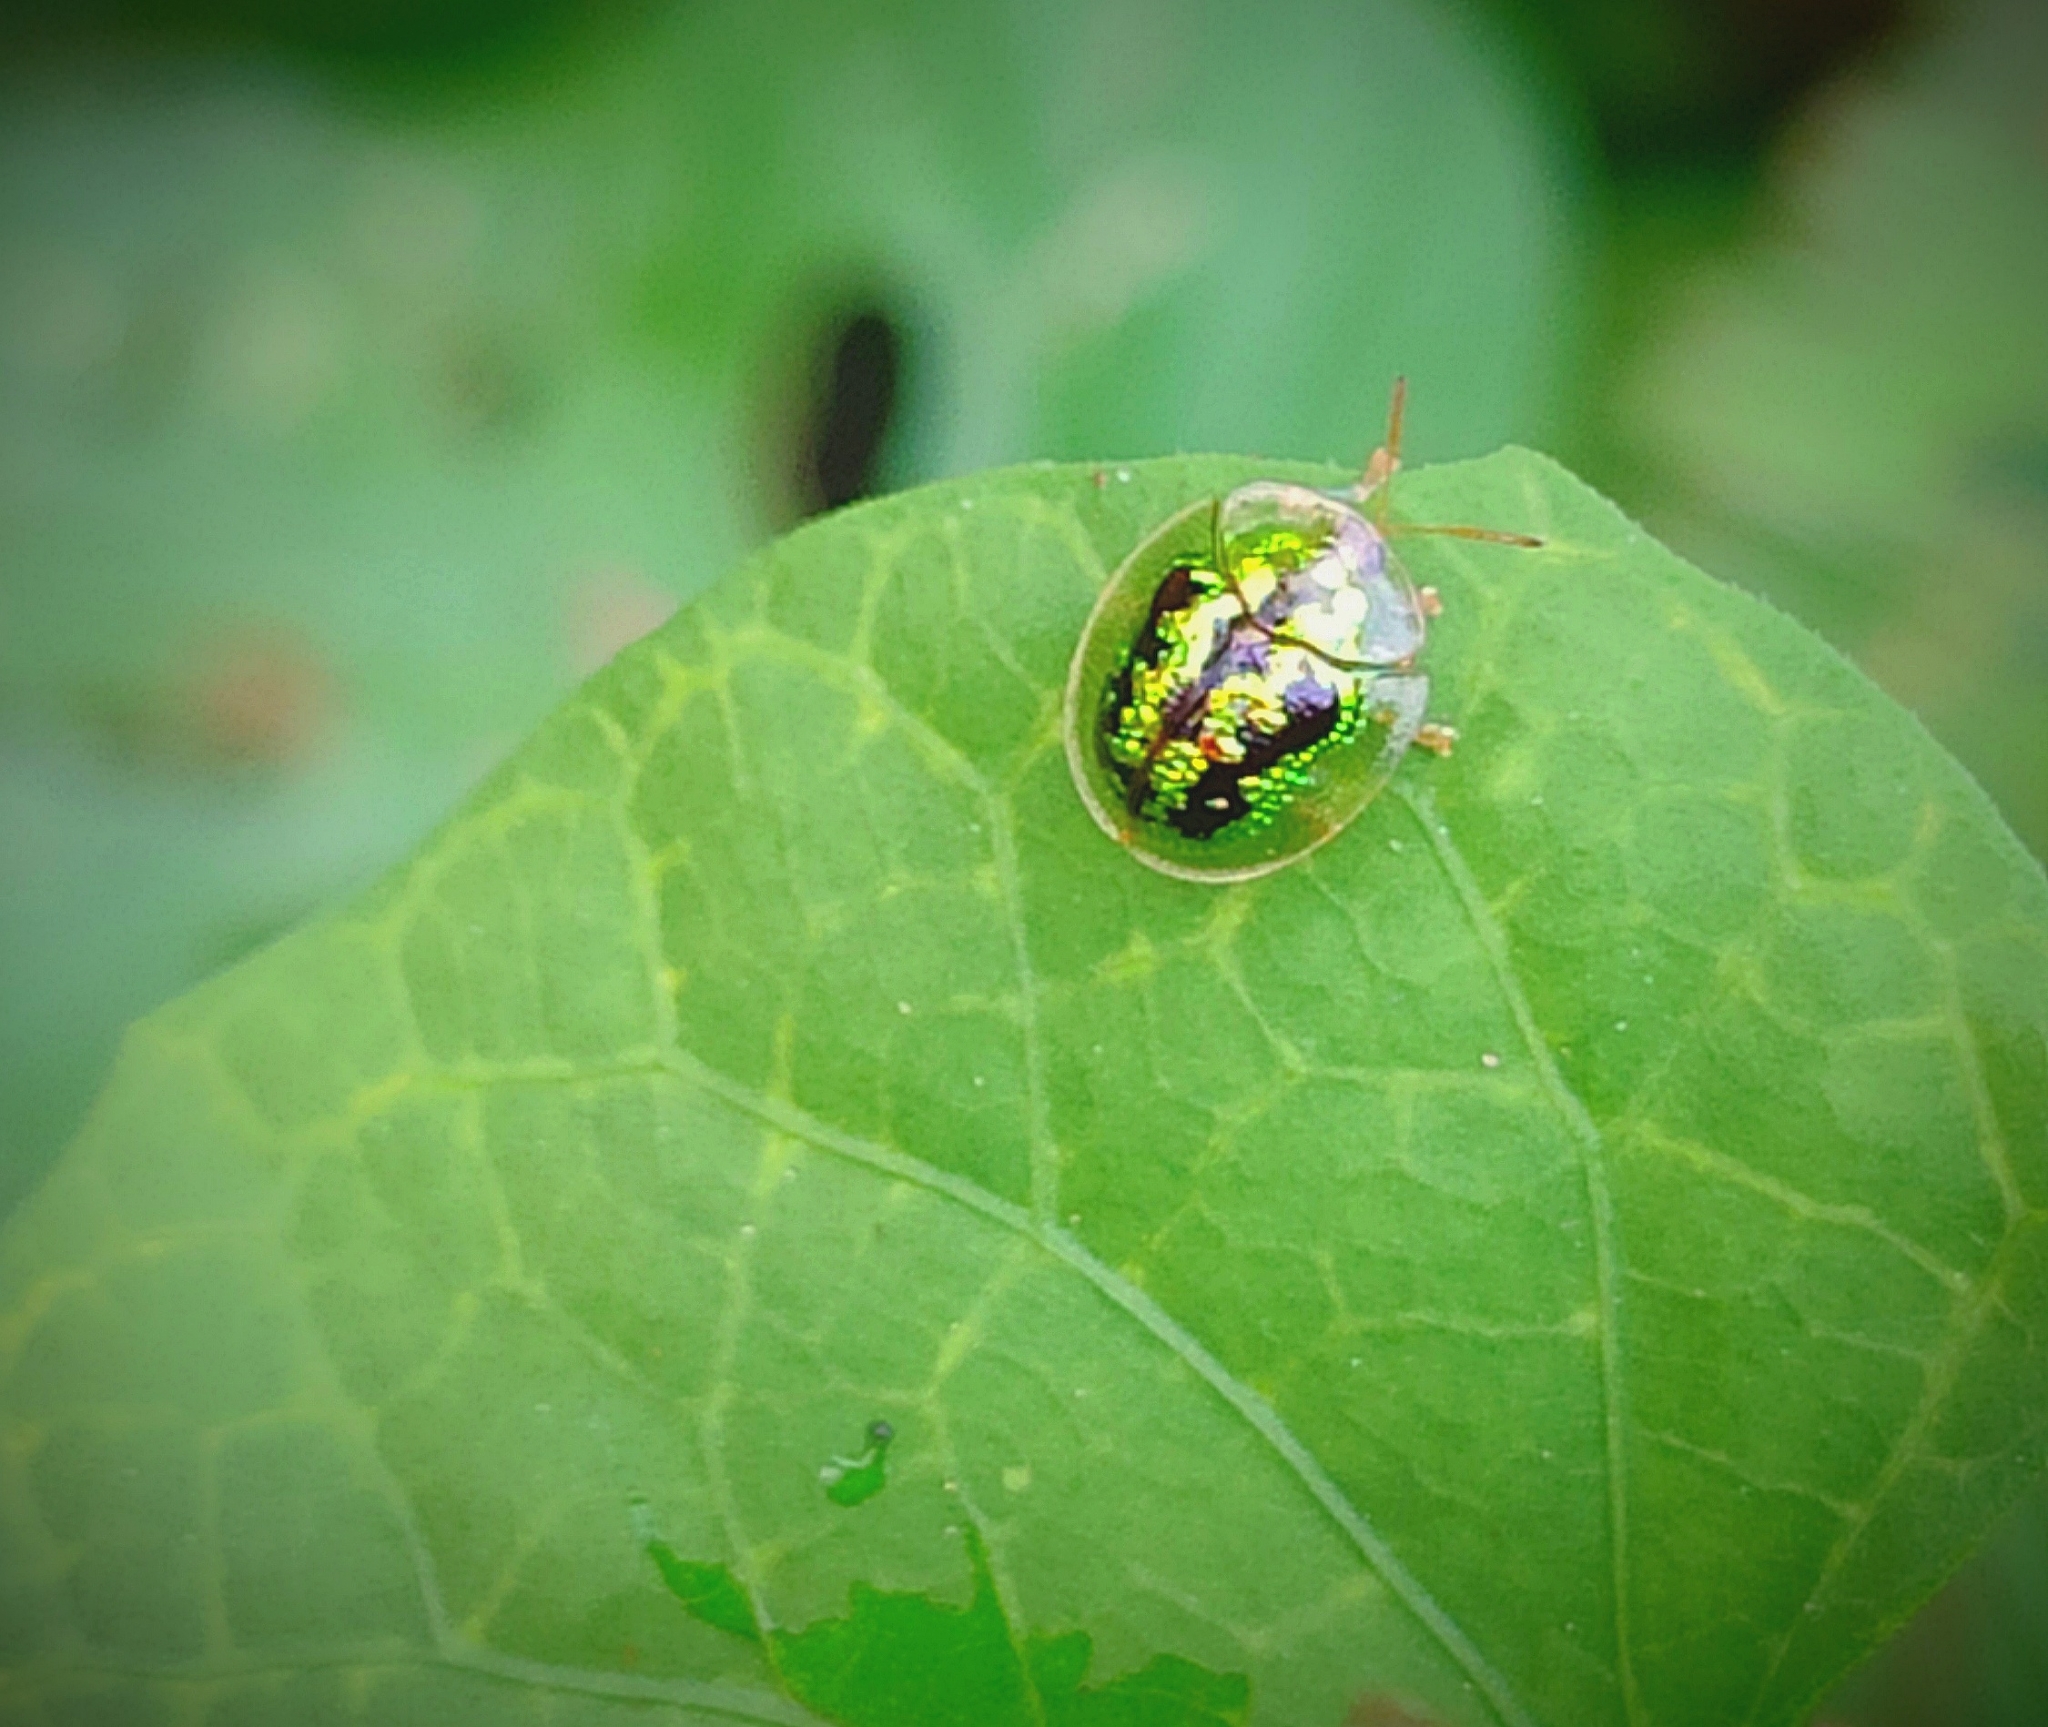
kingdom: Animalia
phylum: Arthropoda
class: Insecta
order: Coleoptera
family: Chrysomelidae
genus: Cassida
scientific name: Cassida circumdata
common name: Tortoise beetle
